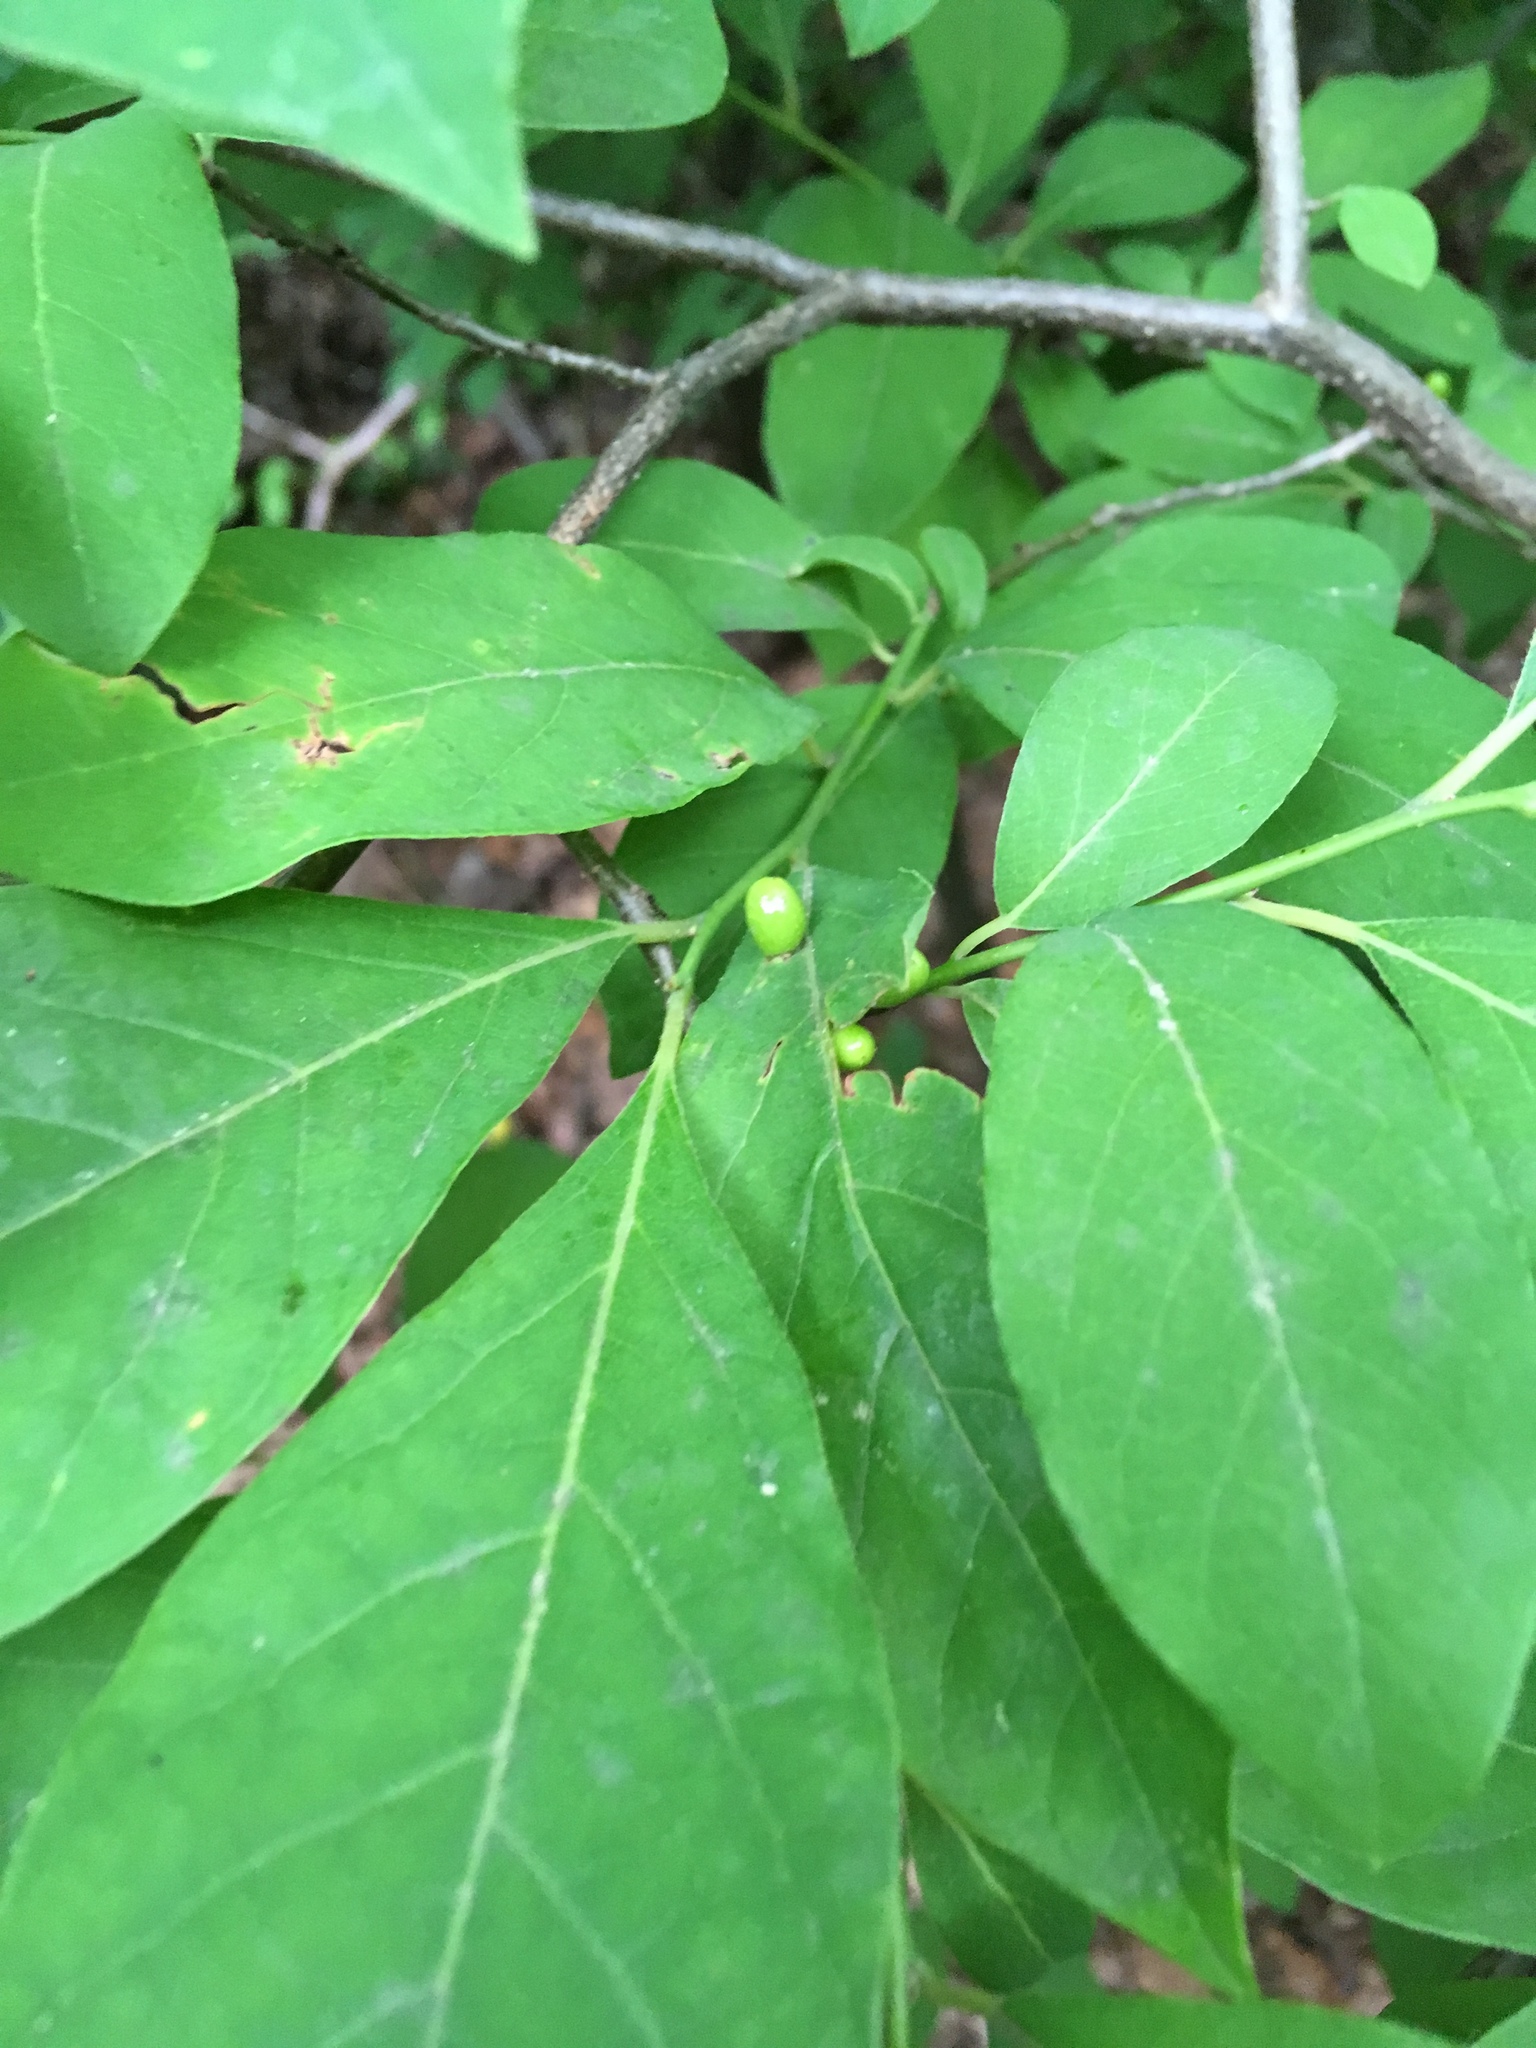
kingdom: Plantae
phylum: Tracheophyta
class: Magnoliopsida
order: Laurales
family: Lauraceae
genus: Lindera
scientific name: Lindera benzoin
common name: Spicebush
